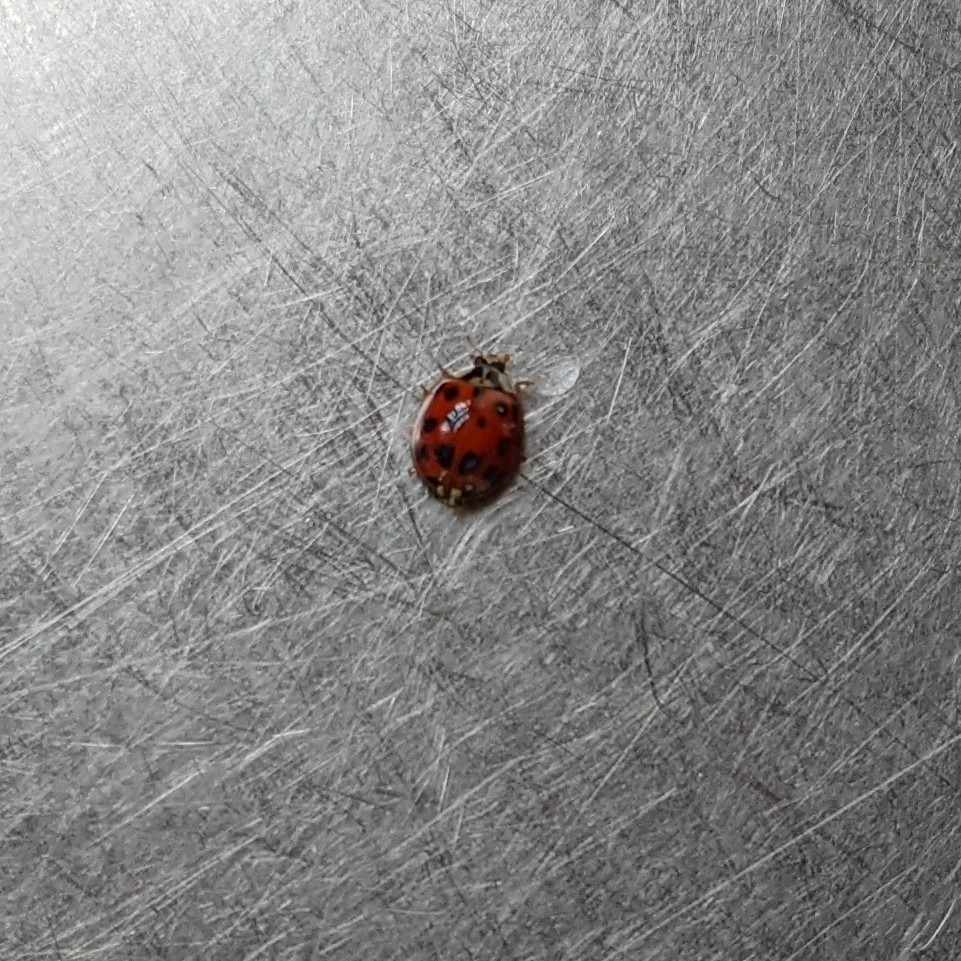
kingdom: Animalia
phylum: Arthropoda
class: Insecta
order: Coleoptera
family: Coccinellidae
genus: Harmonia
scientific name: Harmonia axyridis
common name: Harlequin ladybird
